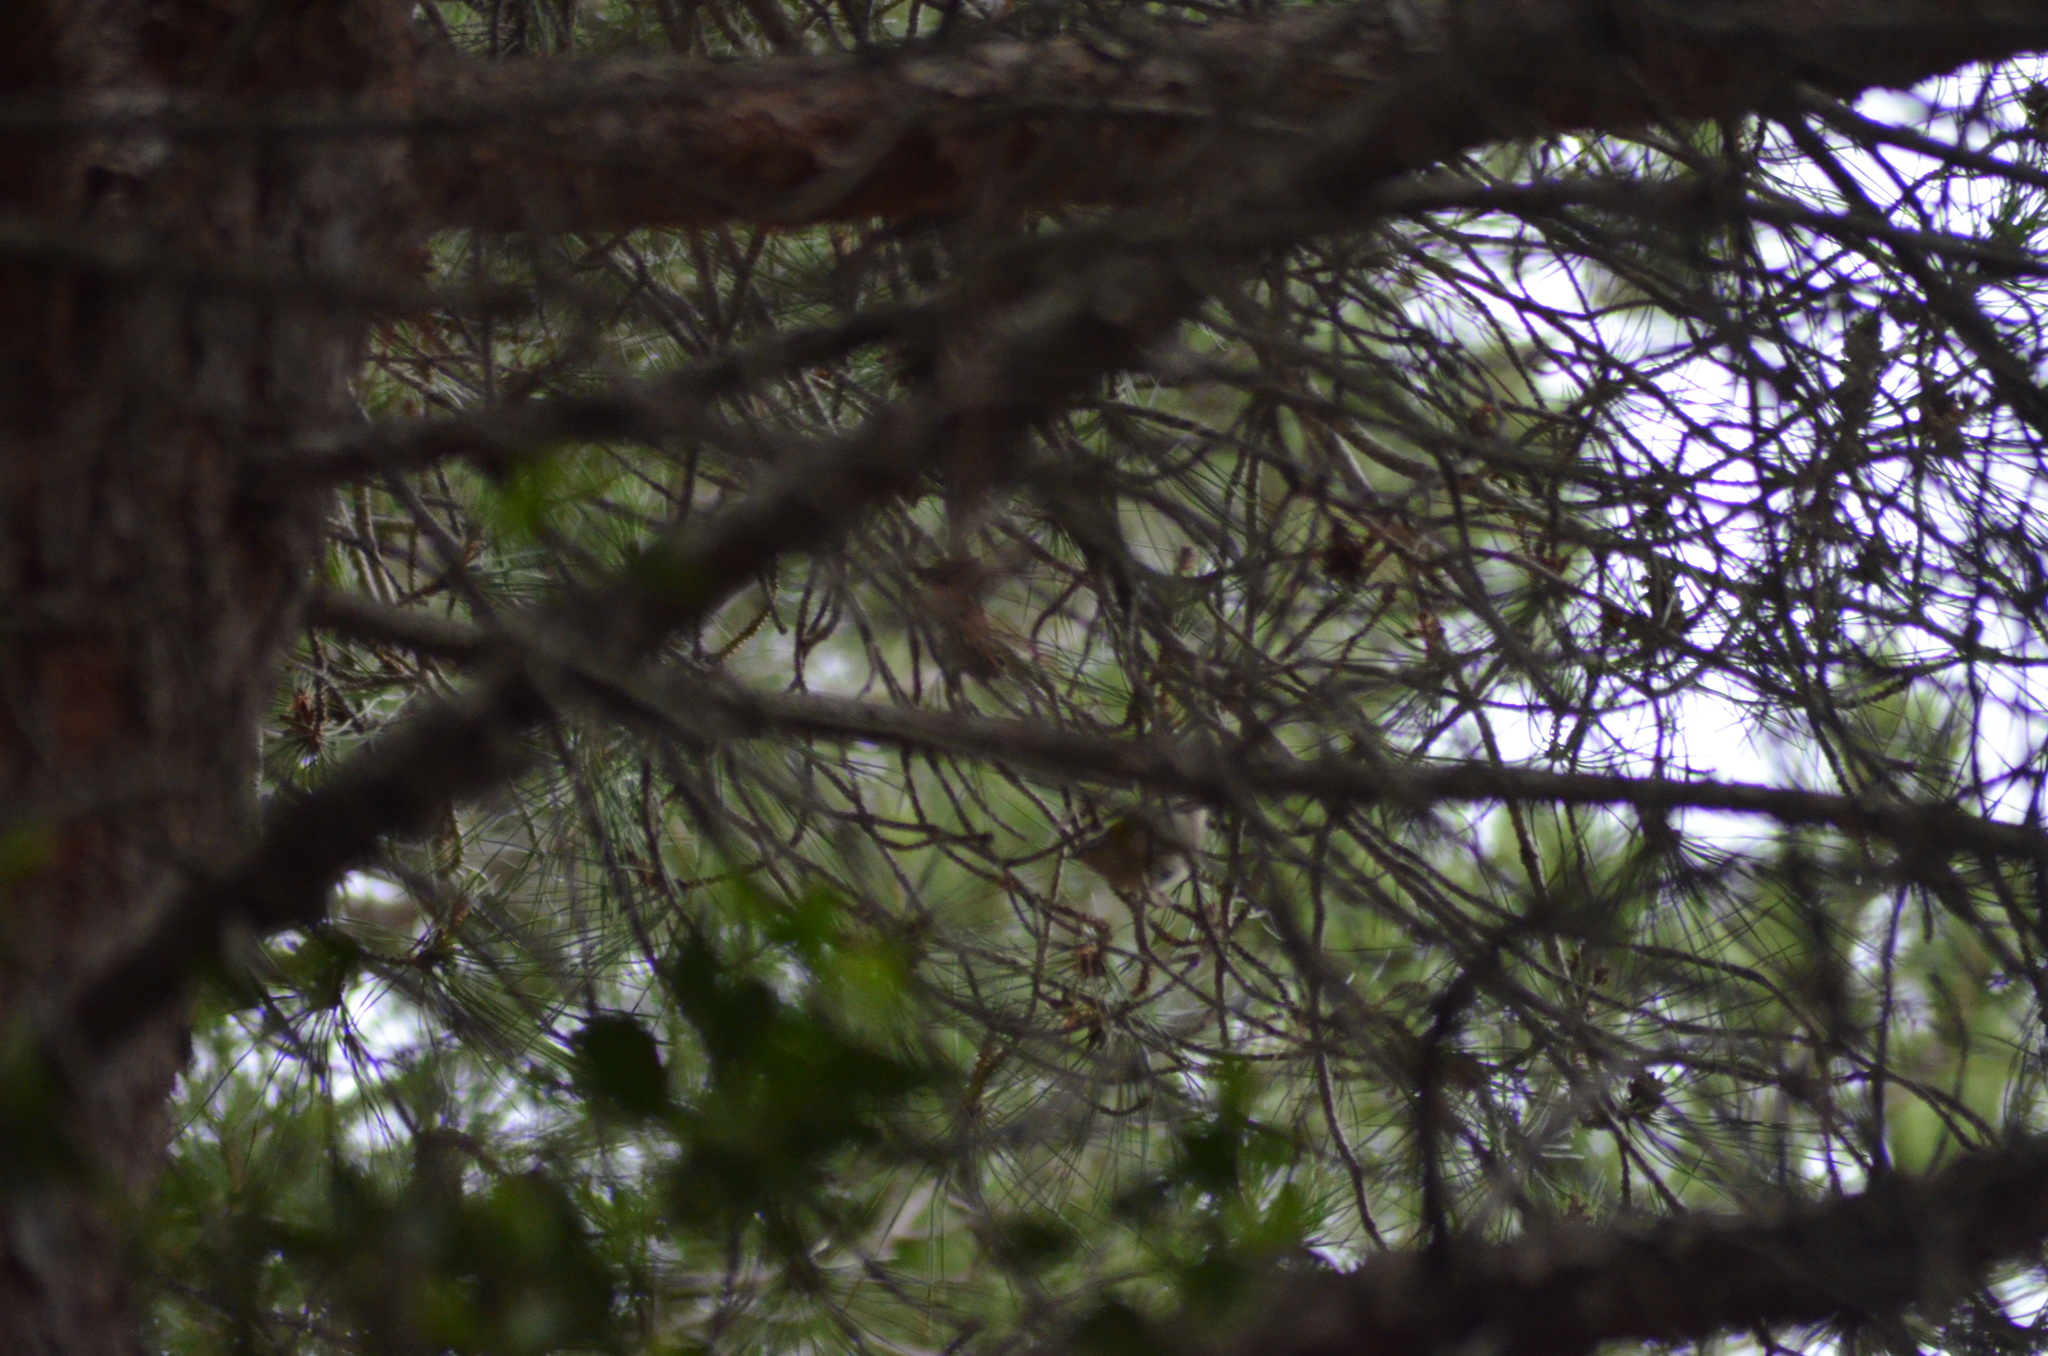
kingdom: Animalia
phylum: Chordata
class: Aves
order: Passeriformes
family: Regulidae
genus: Regulus
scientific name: Regulus ignicapilla
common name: Firecrest
